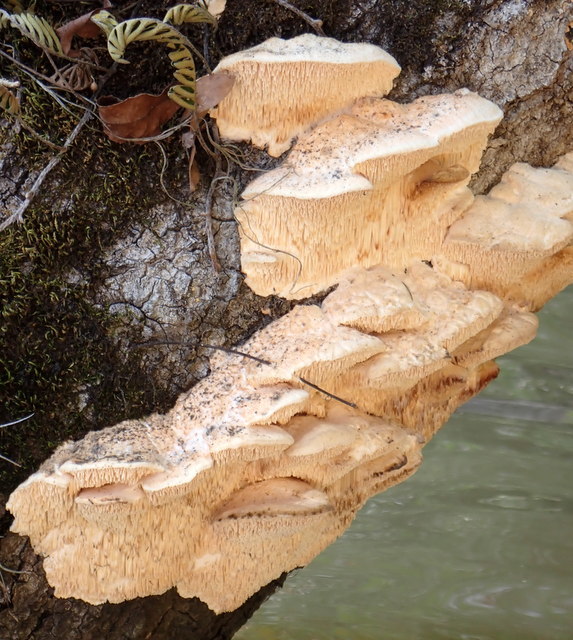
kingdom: Fungi
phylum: Basidiomycota
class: Agaricomycetes
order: Polyporales
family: Meruliaceae
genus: Irpiciporus
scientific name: Irpiciporus pachyodon
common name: Marshmallow polypore
